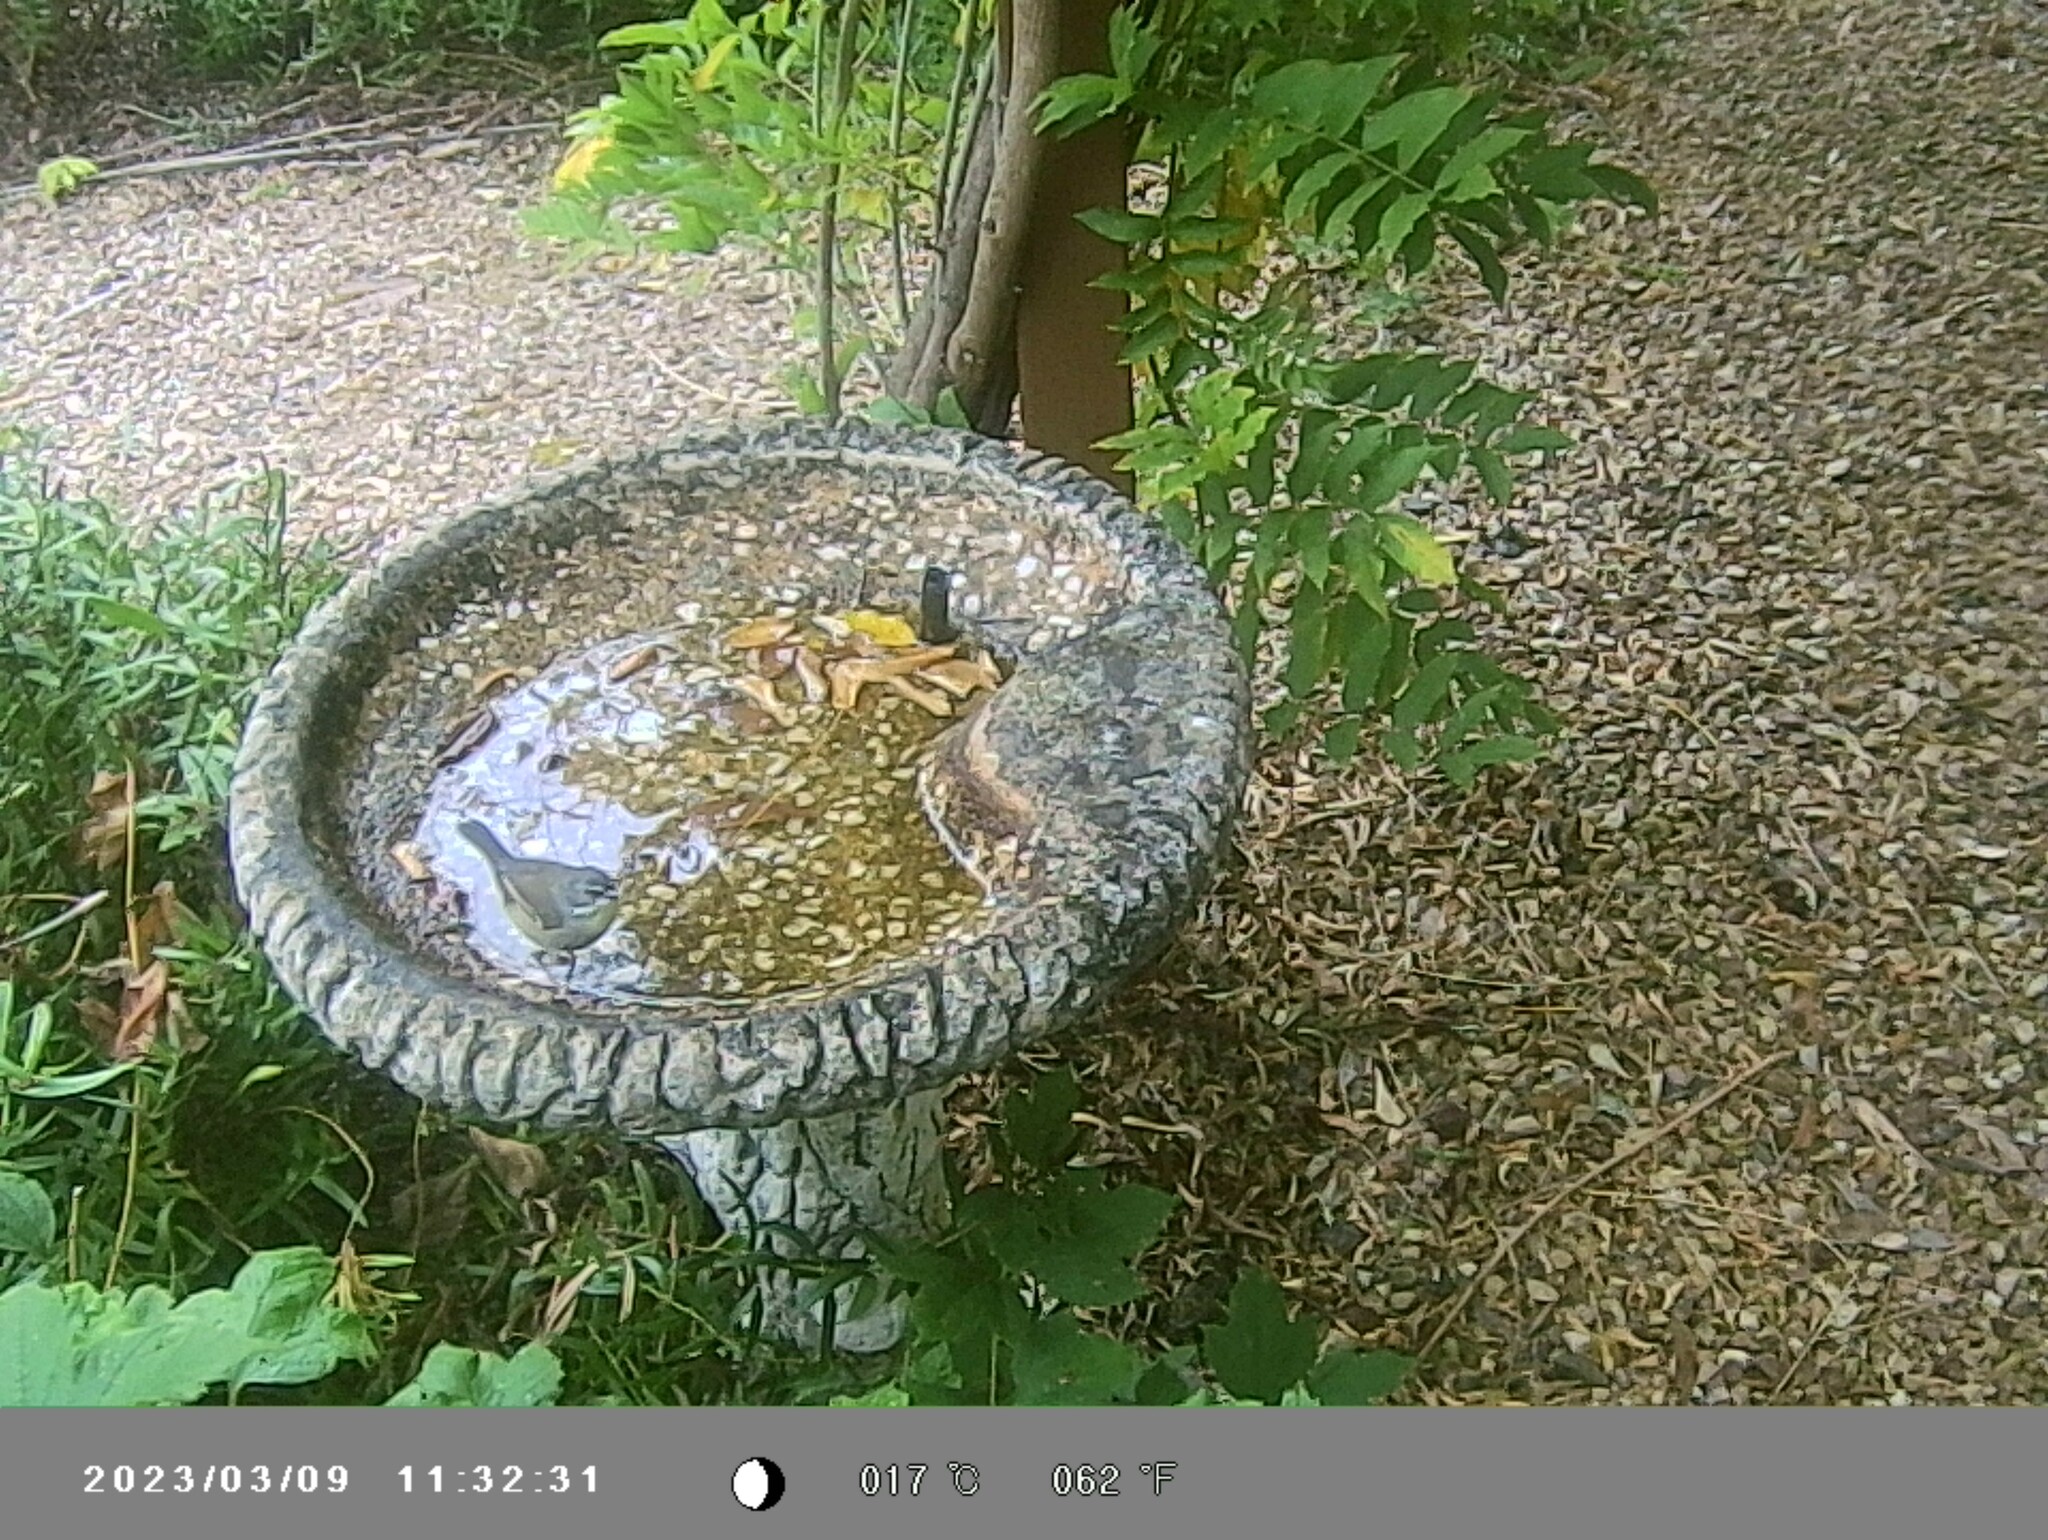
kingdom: Animalia
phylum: Chordata
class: Aves
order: Passeriformes
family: Acanthizidae
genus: Sericornis
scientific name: Sericornis frontalis
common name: White-browed scrubwren
